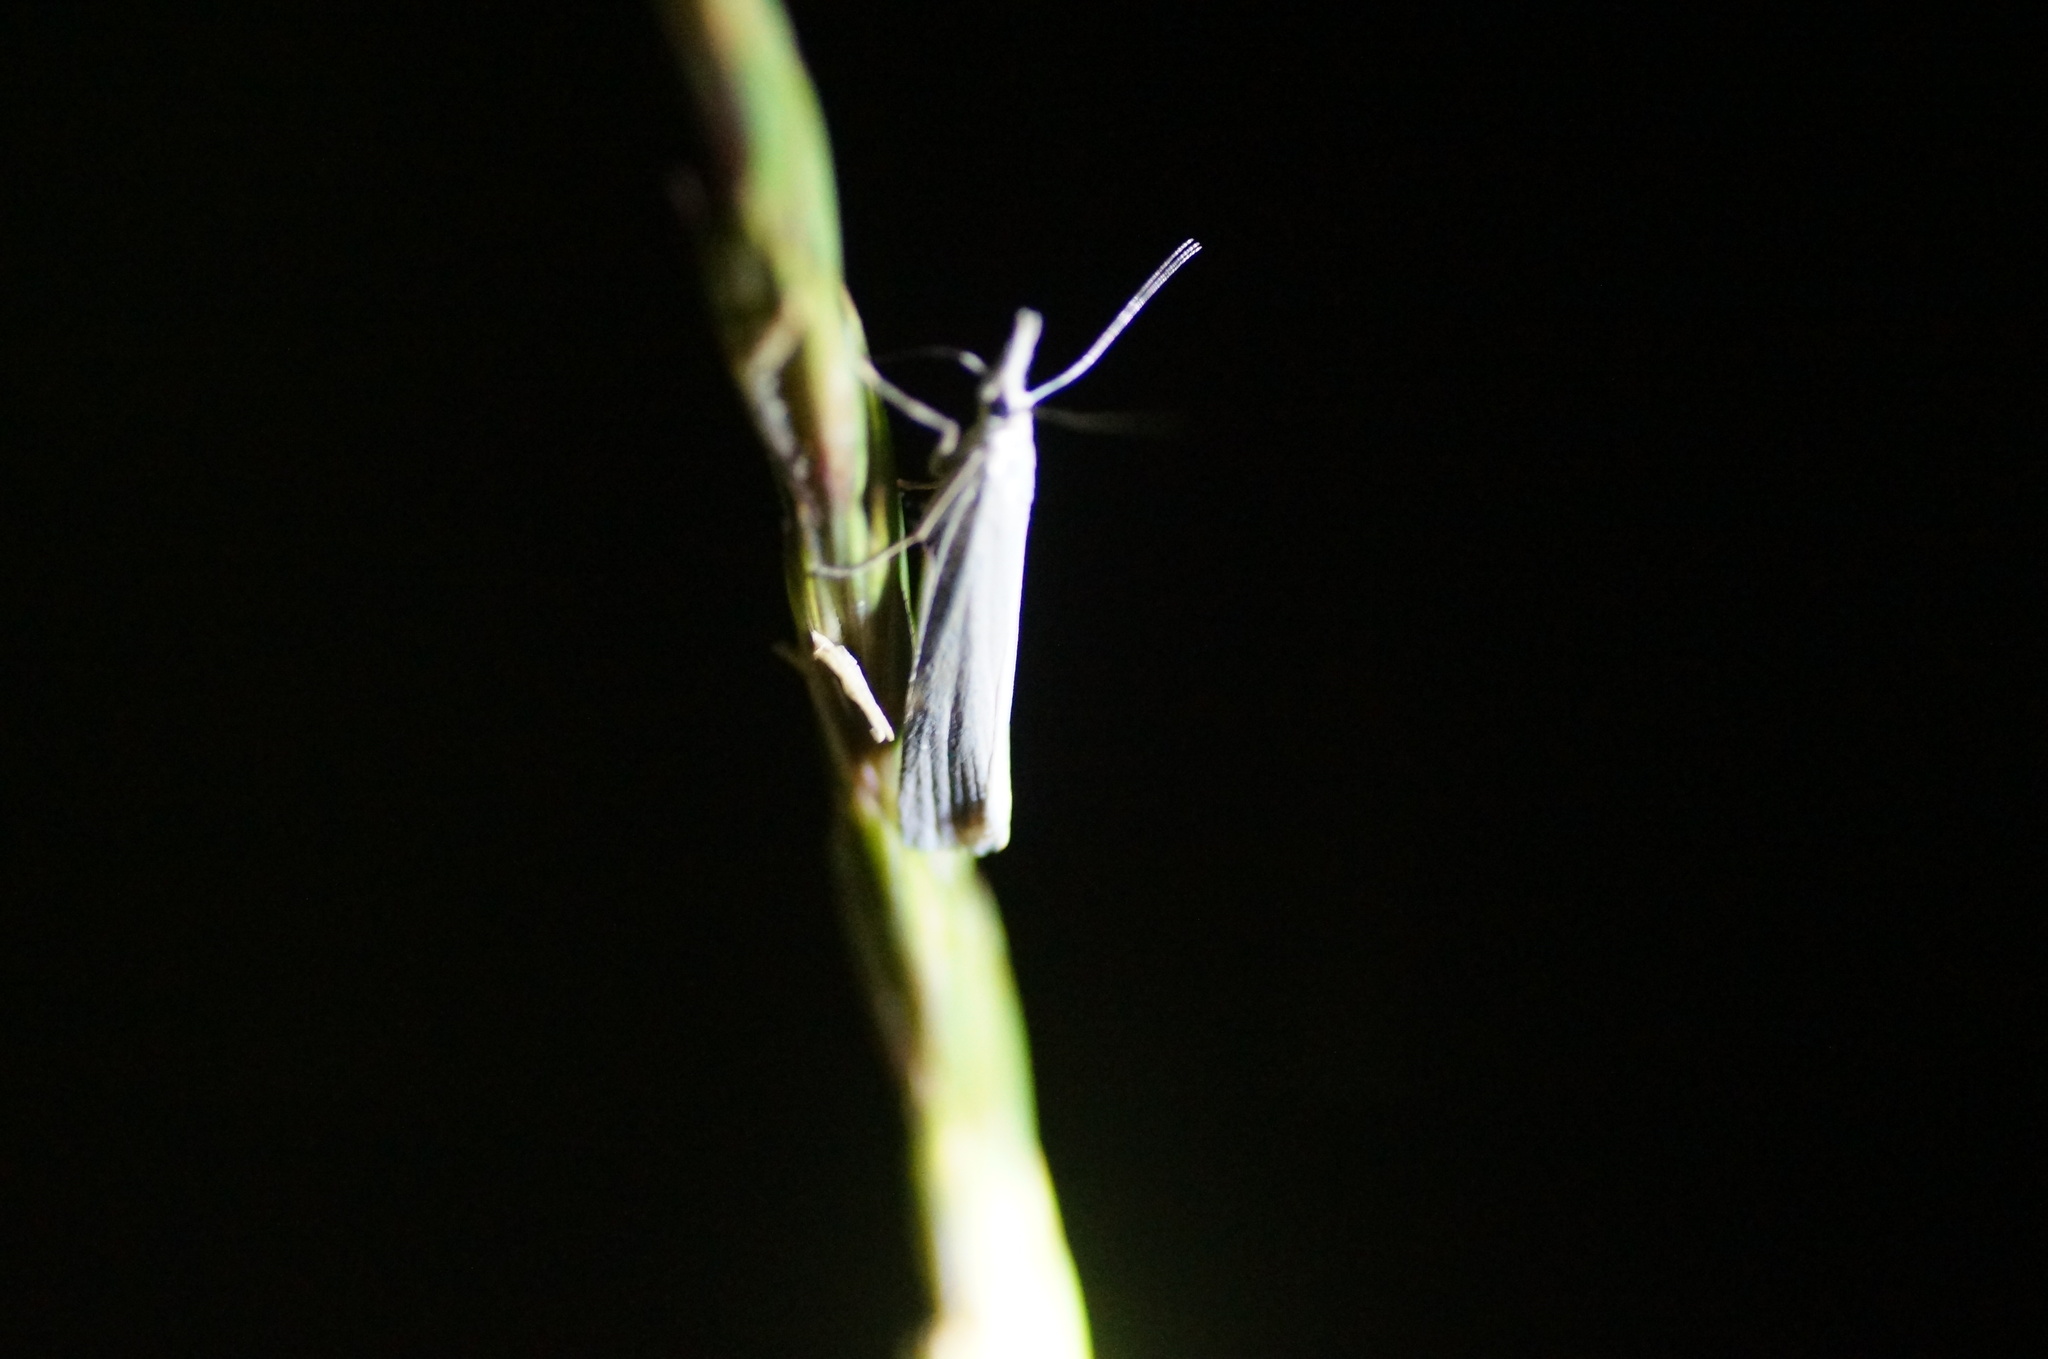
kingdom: Animalia
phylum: Arthropoda
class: Insecta
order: Lepidoptera
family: Crambidae
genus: Crambus
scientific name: Crambus perlellus
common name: Yellow satin veneer
